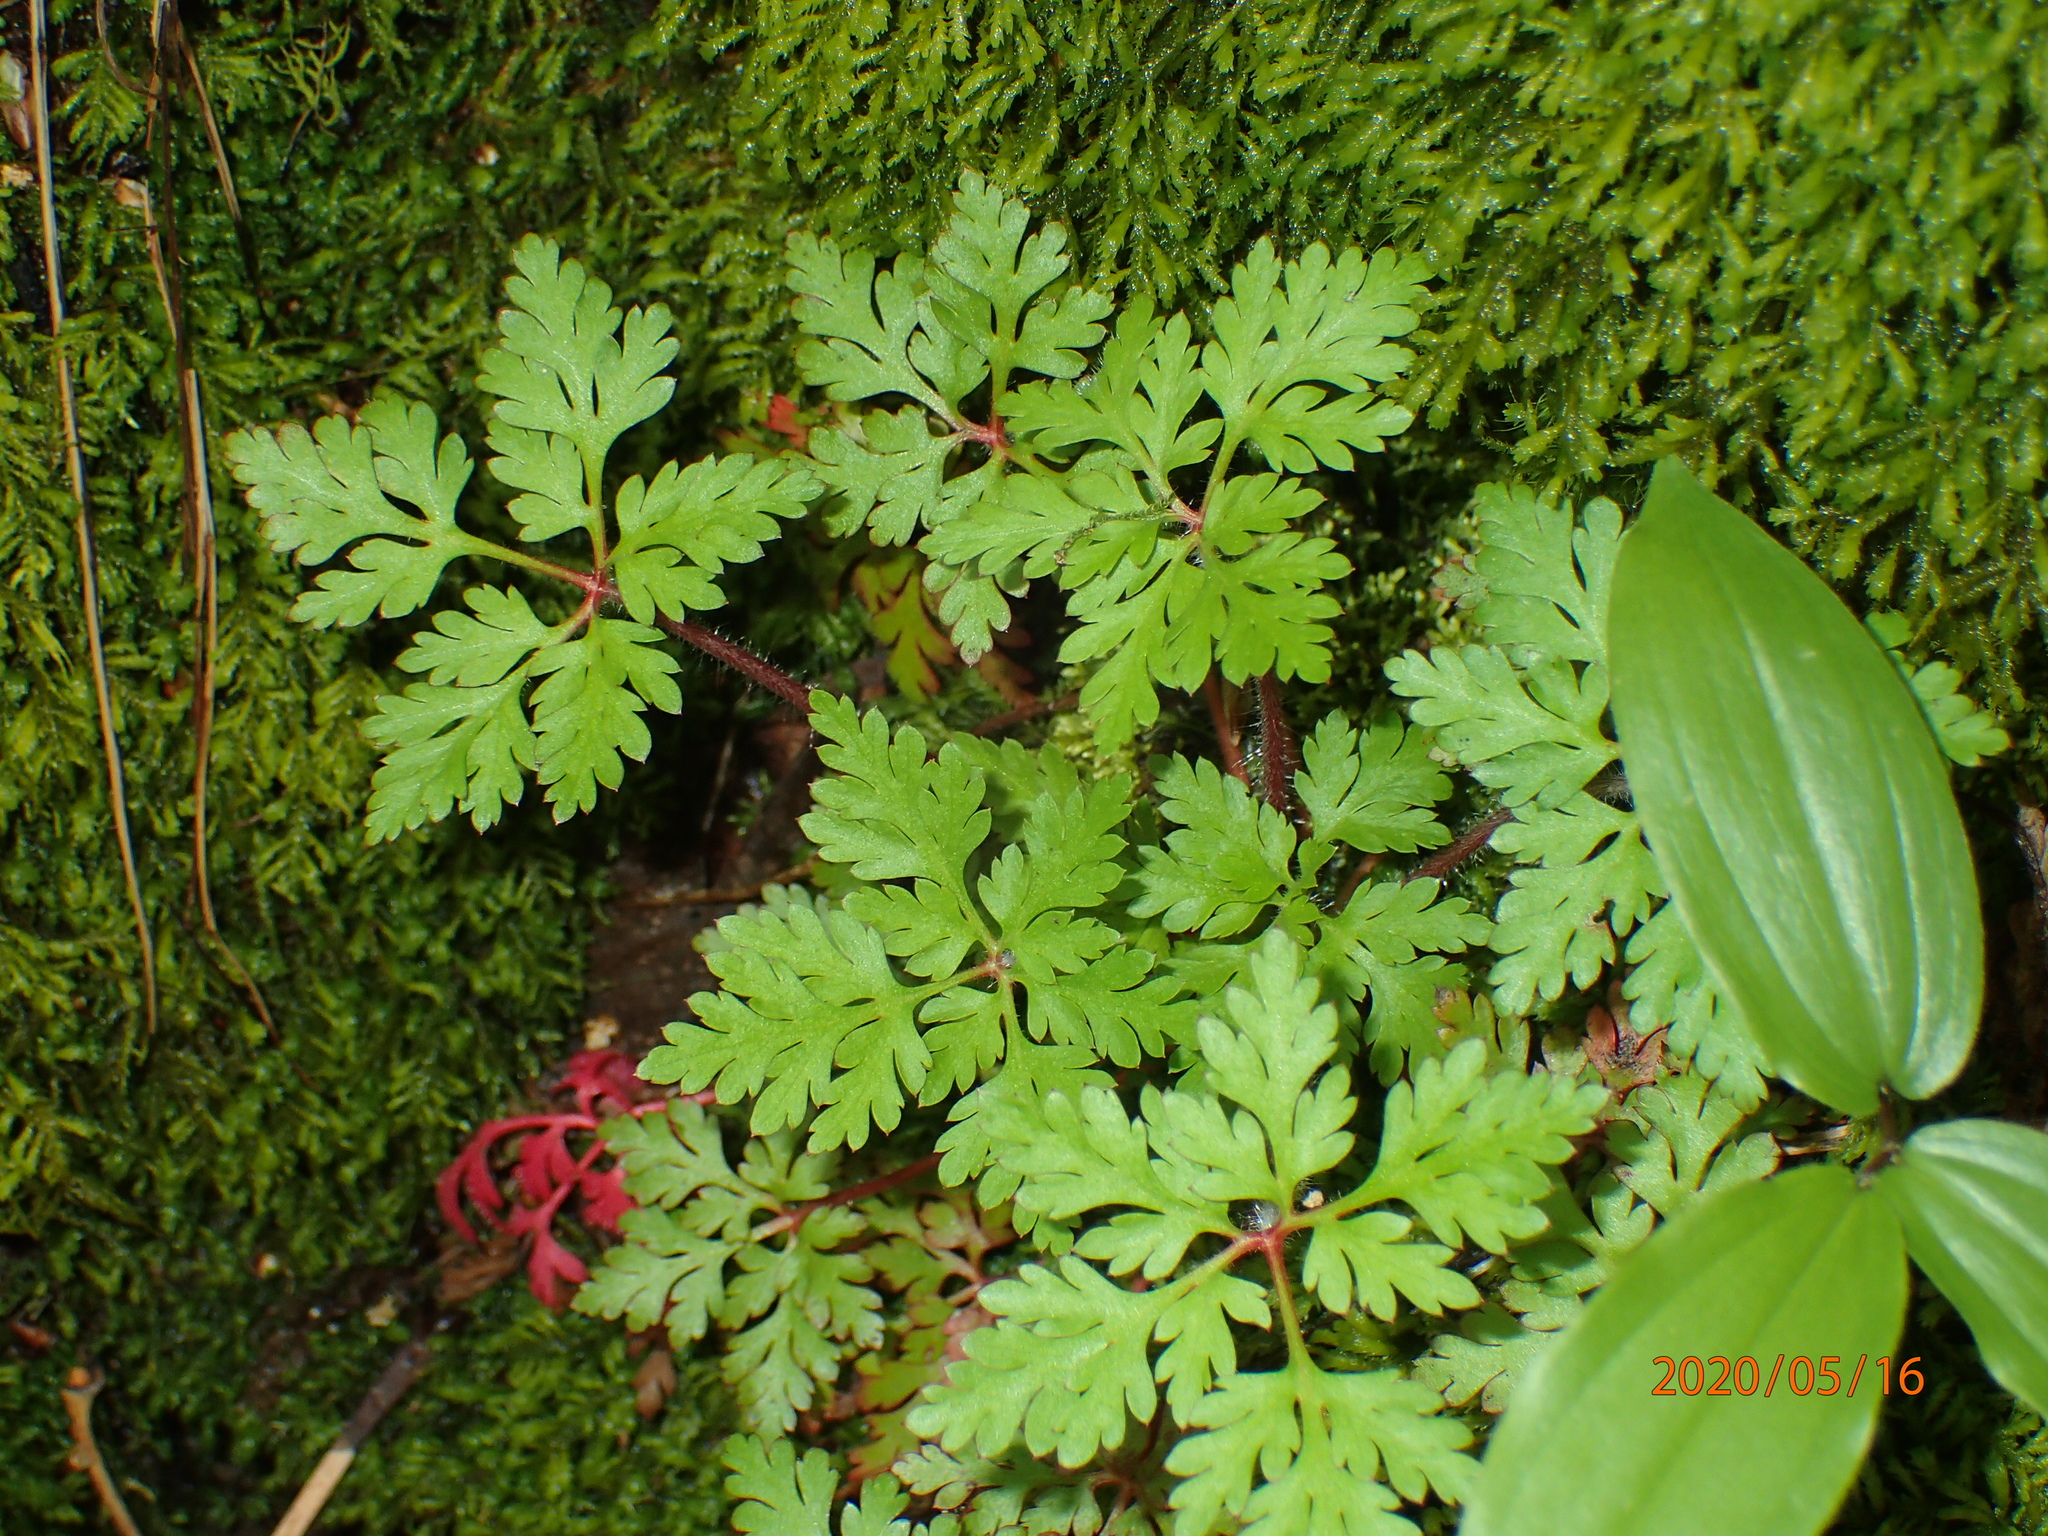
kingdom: Plantae
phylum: Tracheophyta
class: Magnoliopsida
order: Geraniales
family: Geraniaceae
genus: Geranium
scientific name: Geranium robertianum
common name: Herb-robert
